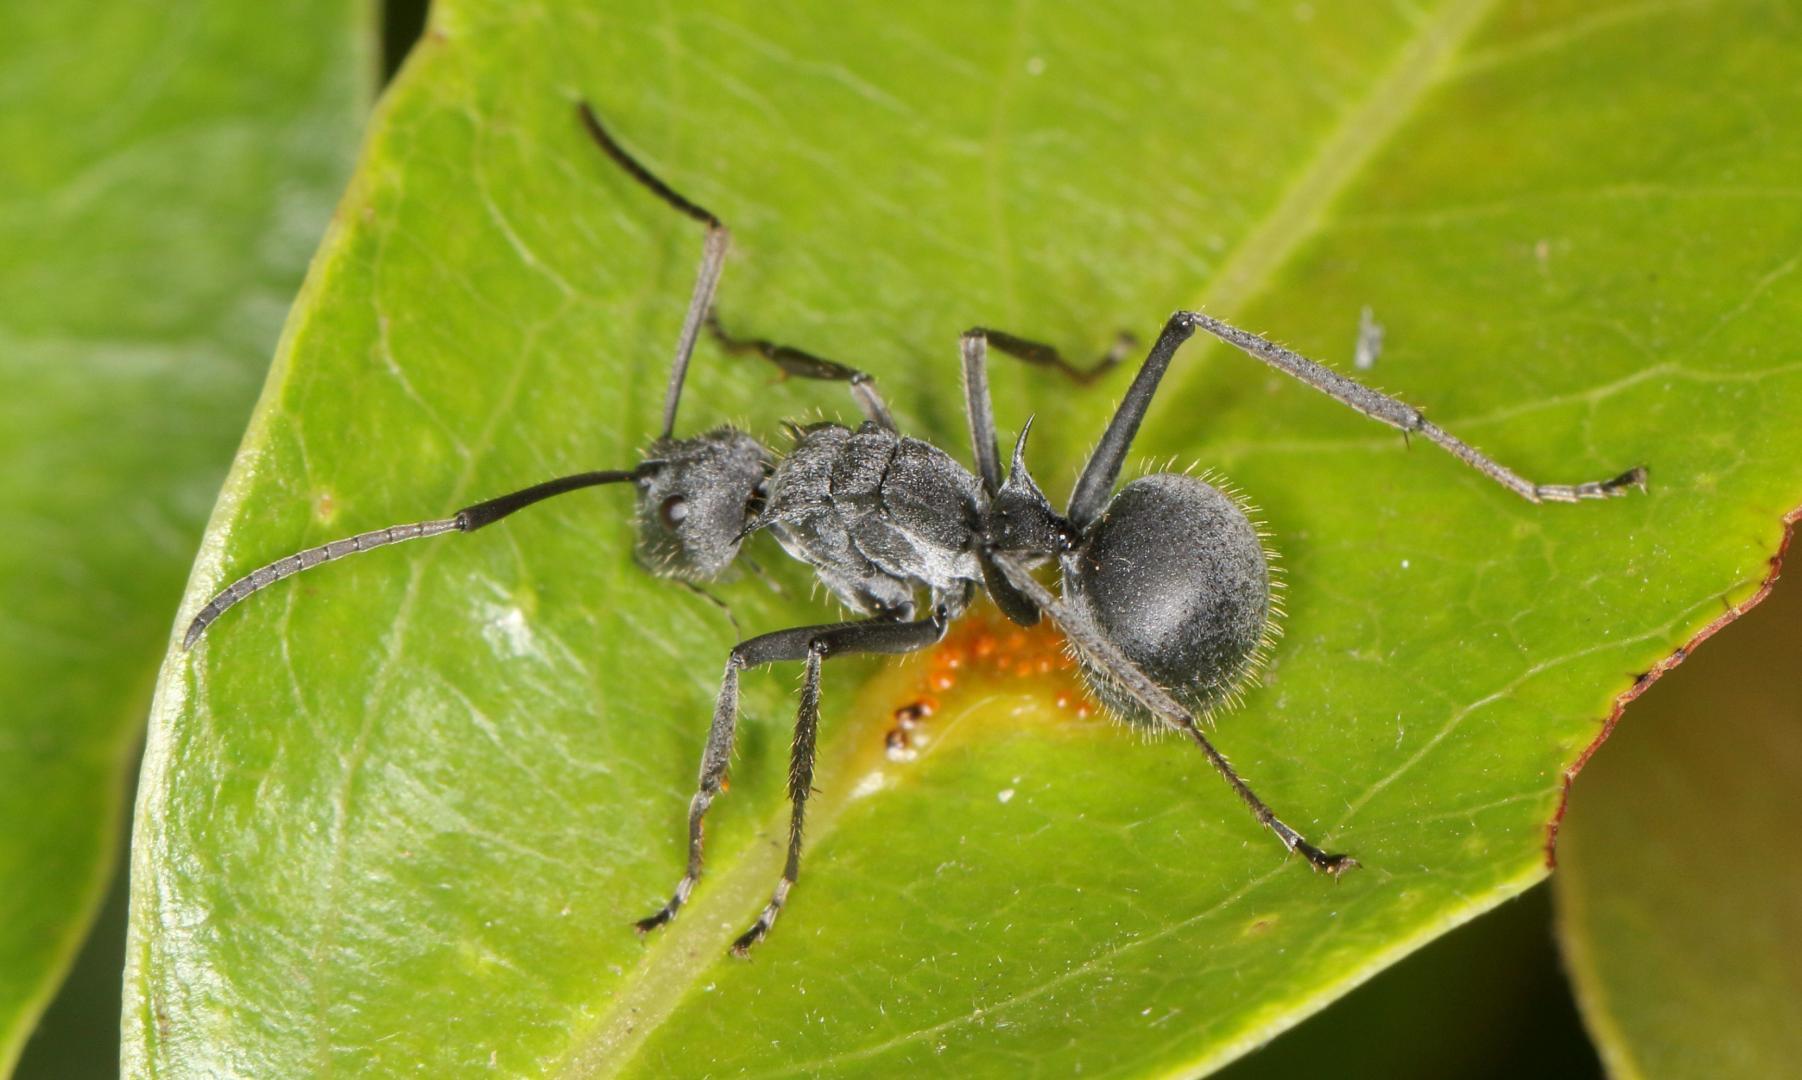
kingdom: Animalia
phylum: Arthropoda
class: Insecta
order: Hymenoptera
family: Formicidae
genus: Polyrhachis
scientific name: Polyrhachis schistacea
